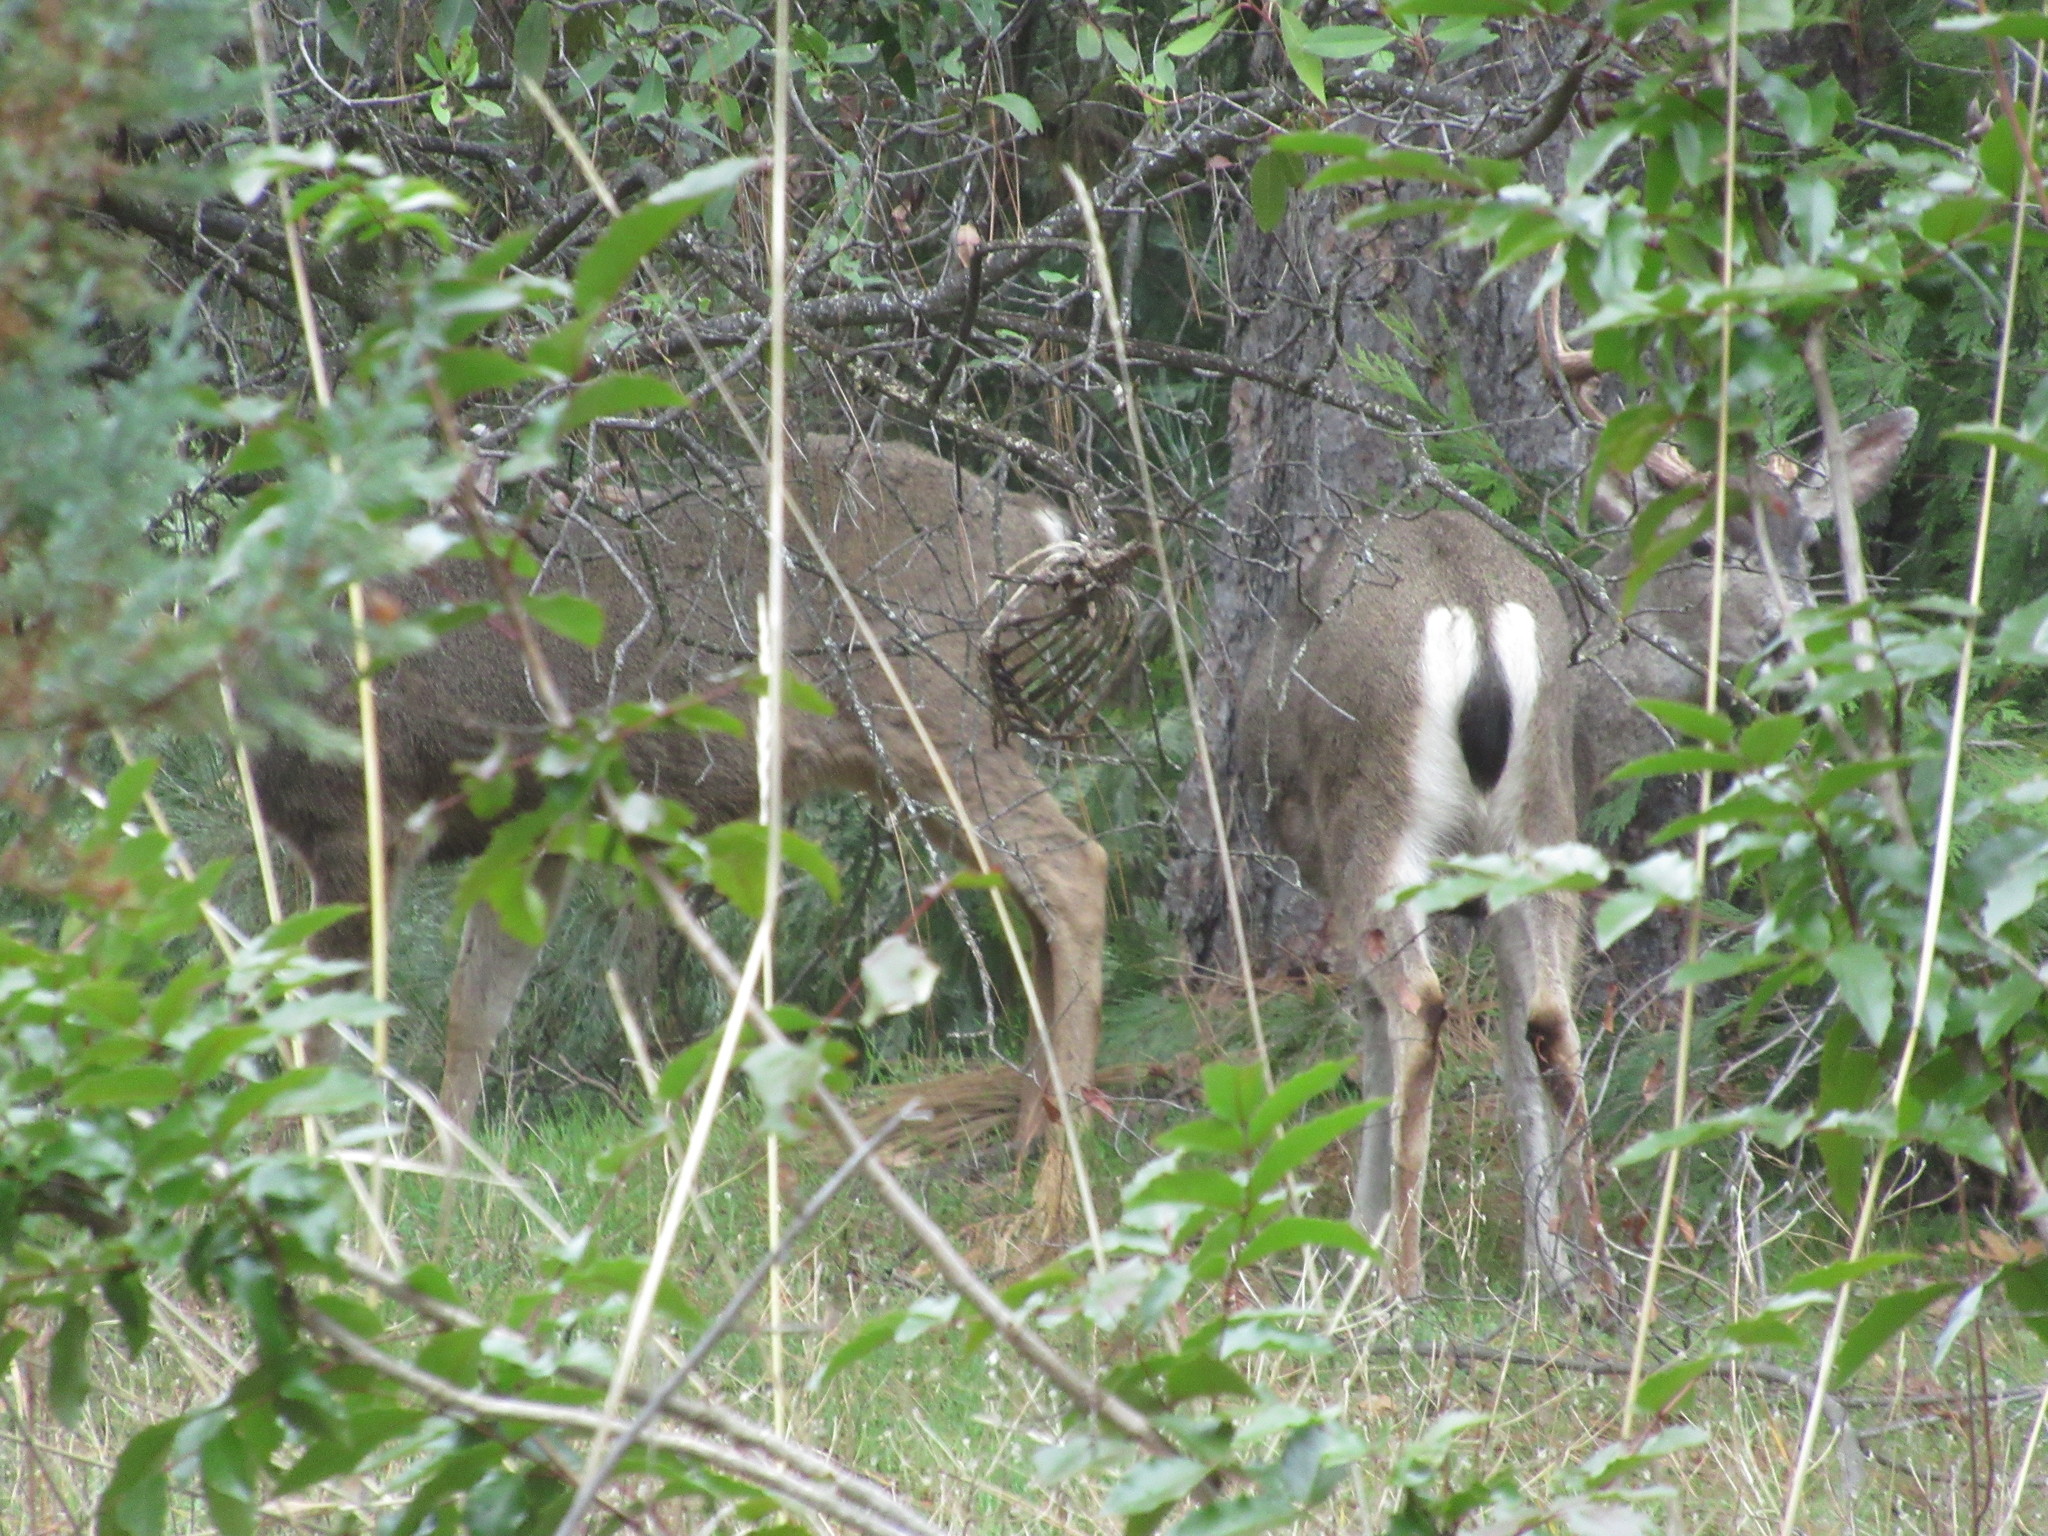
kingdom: Animalia
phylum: Chordata
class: Mammalia
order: Artiodactyla
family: Cervidae
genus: Odocoileus
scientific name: Odocoileus hemionus
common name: Mule deer
